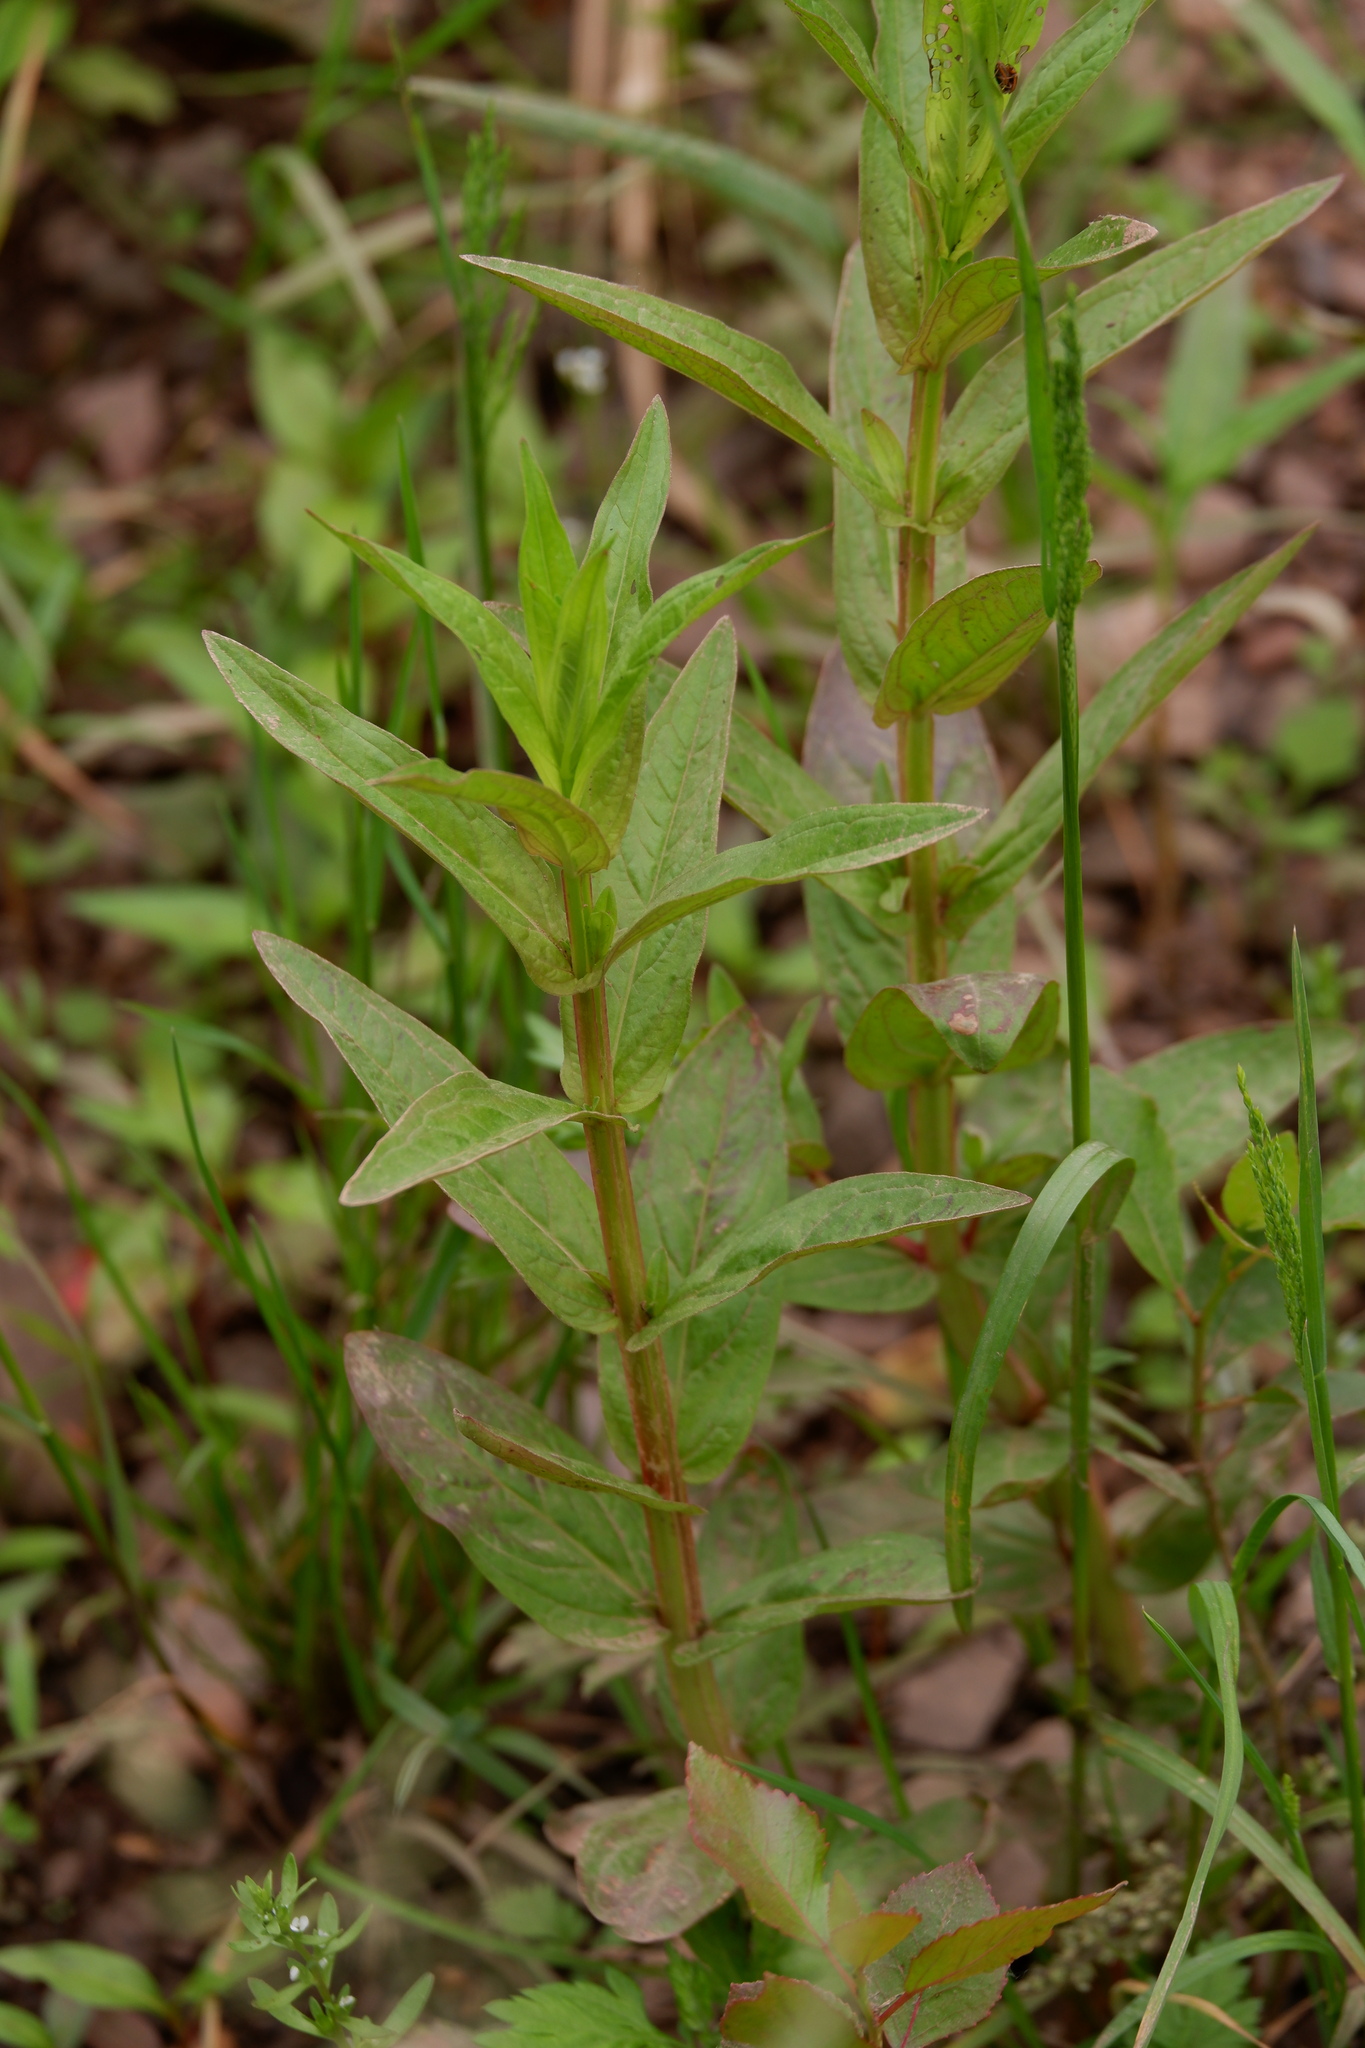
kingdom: Plantae
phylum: Tracheophyta
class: Magnoliopsida
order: Myrtales
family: Lythraceae
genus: Lythrum
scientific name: Lythrum salicaria
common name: Purple loosestrife
